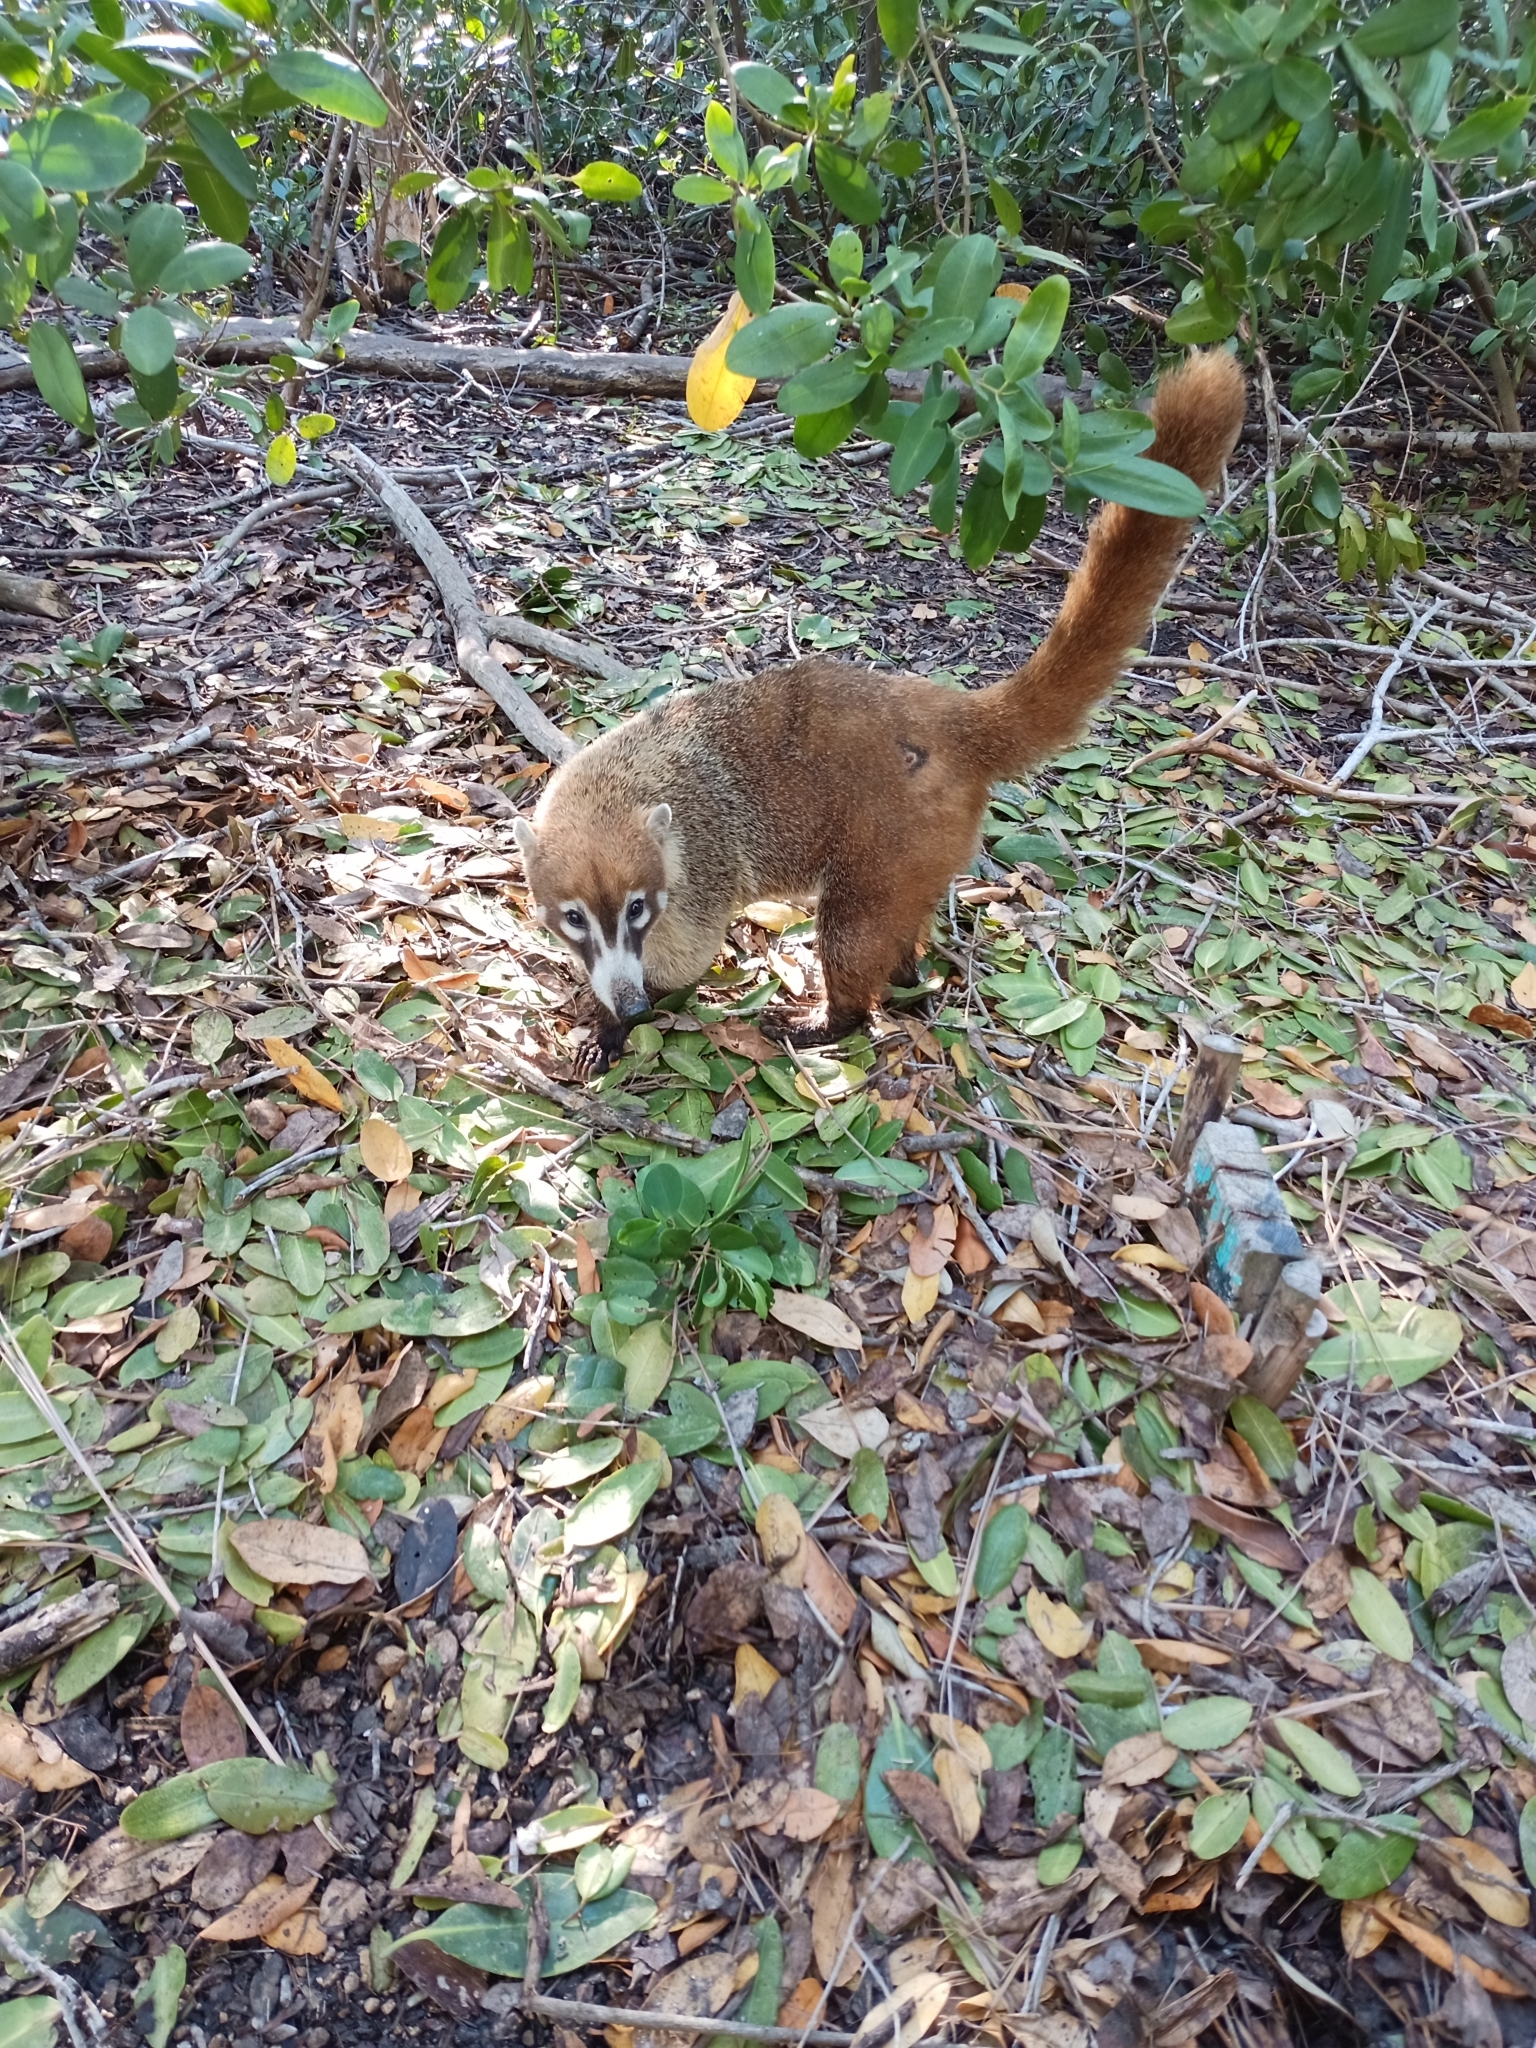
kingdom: Animalia
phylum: Chordata
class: Mammalia
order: Carnivora
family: Procyonidae
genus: Nasua
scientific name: Nasua narica
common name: White-nosed coati
